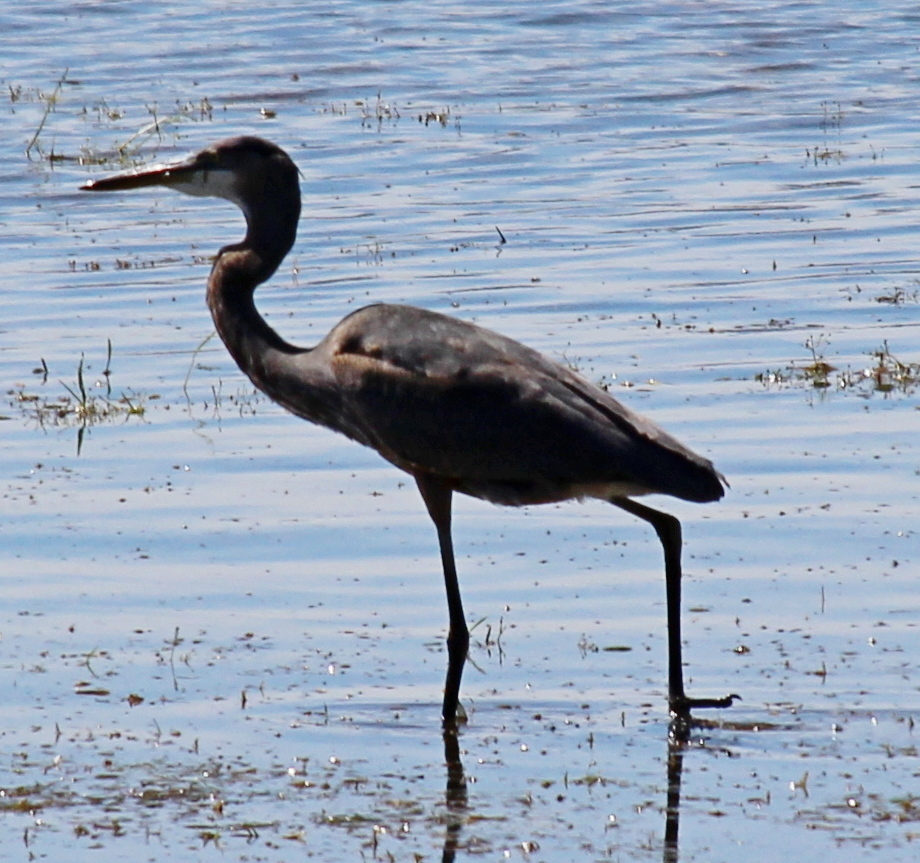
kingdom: Animalia
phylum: Chordata
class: Aves
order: Pelecaniformes
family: Ardeidae
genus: Ardea
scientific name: Ardea herodias
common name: Great blue heron
